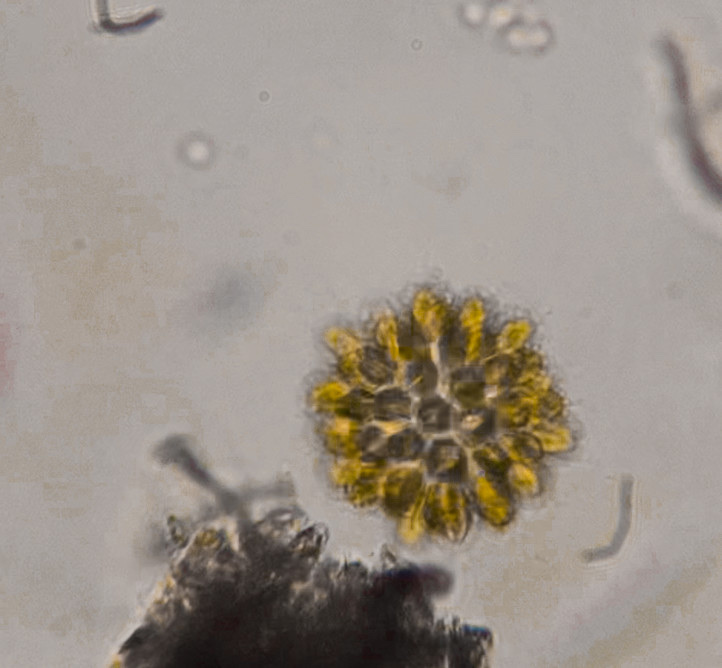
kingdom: Chromista
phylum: Ochrophyta
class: Synurophyceae
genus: Synura
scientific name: Synura
